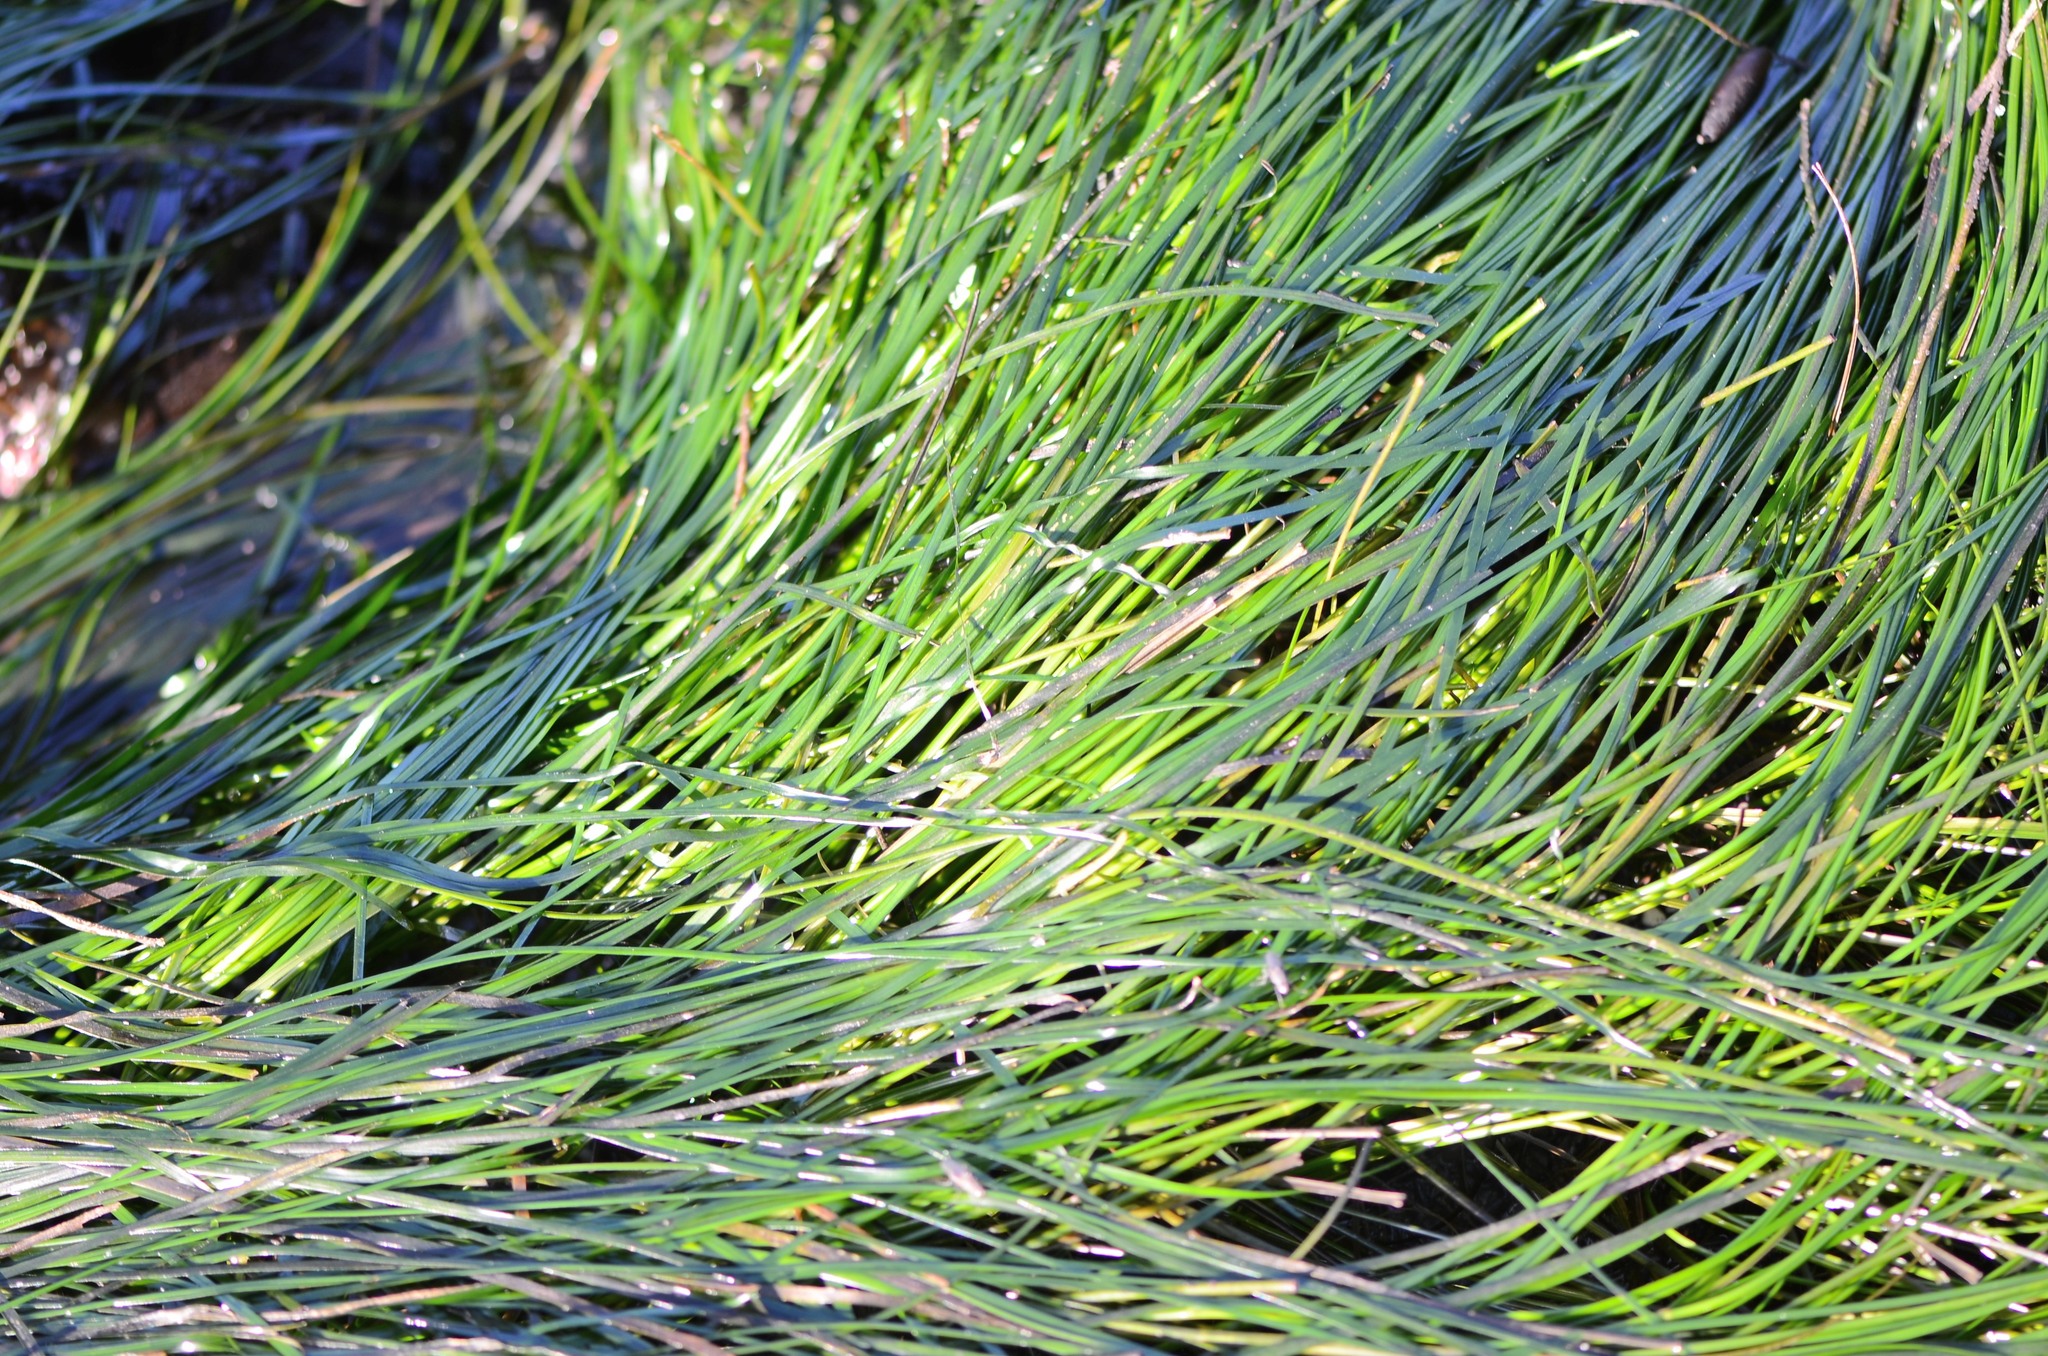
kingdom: Plantae
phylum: Tracheophyta
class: Liliopsida
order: Alismatales
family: Zosteraceae
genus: Phyllospadix
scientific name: Phyllospadix scouleri
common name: Species code: ps
